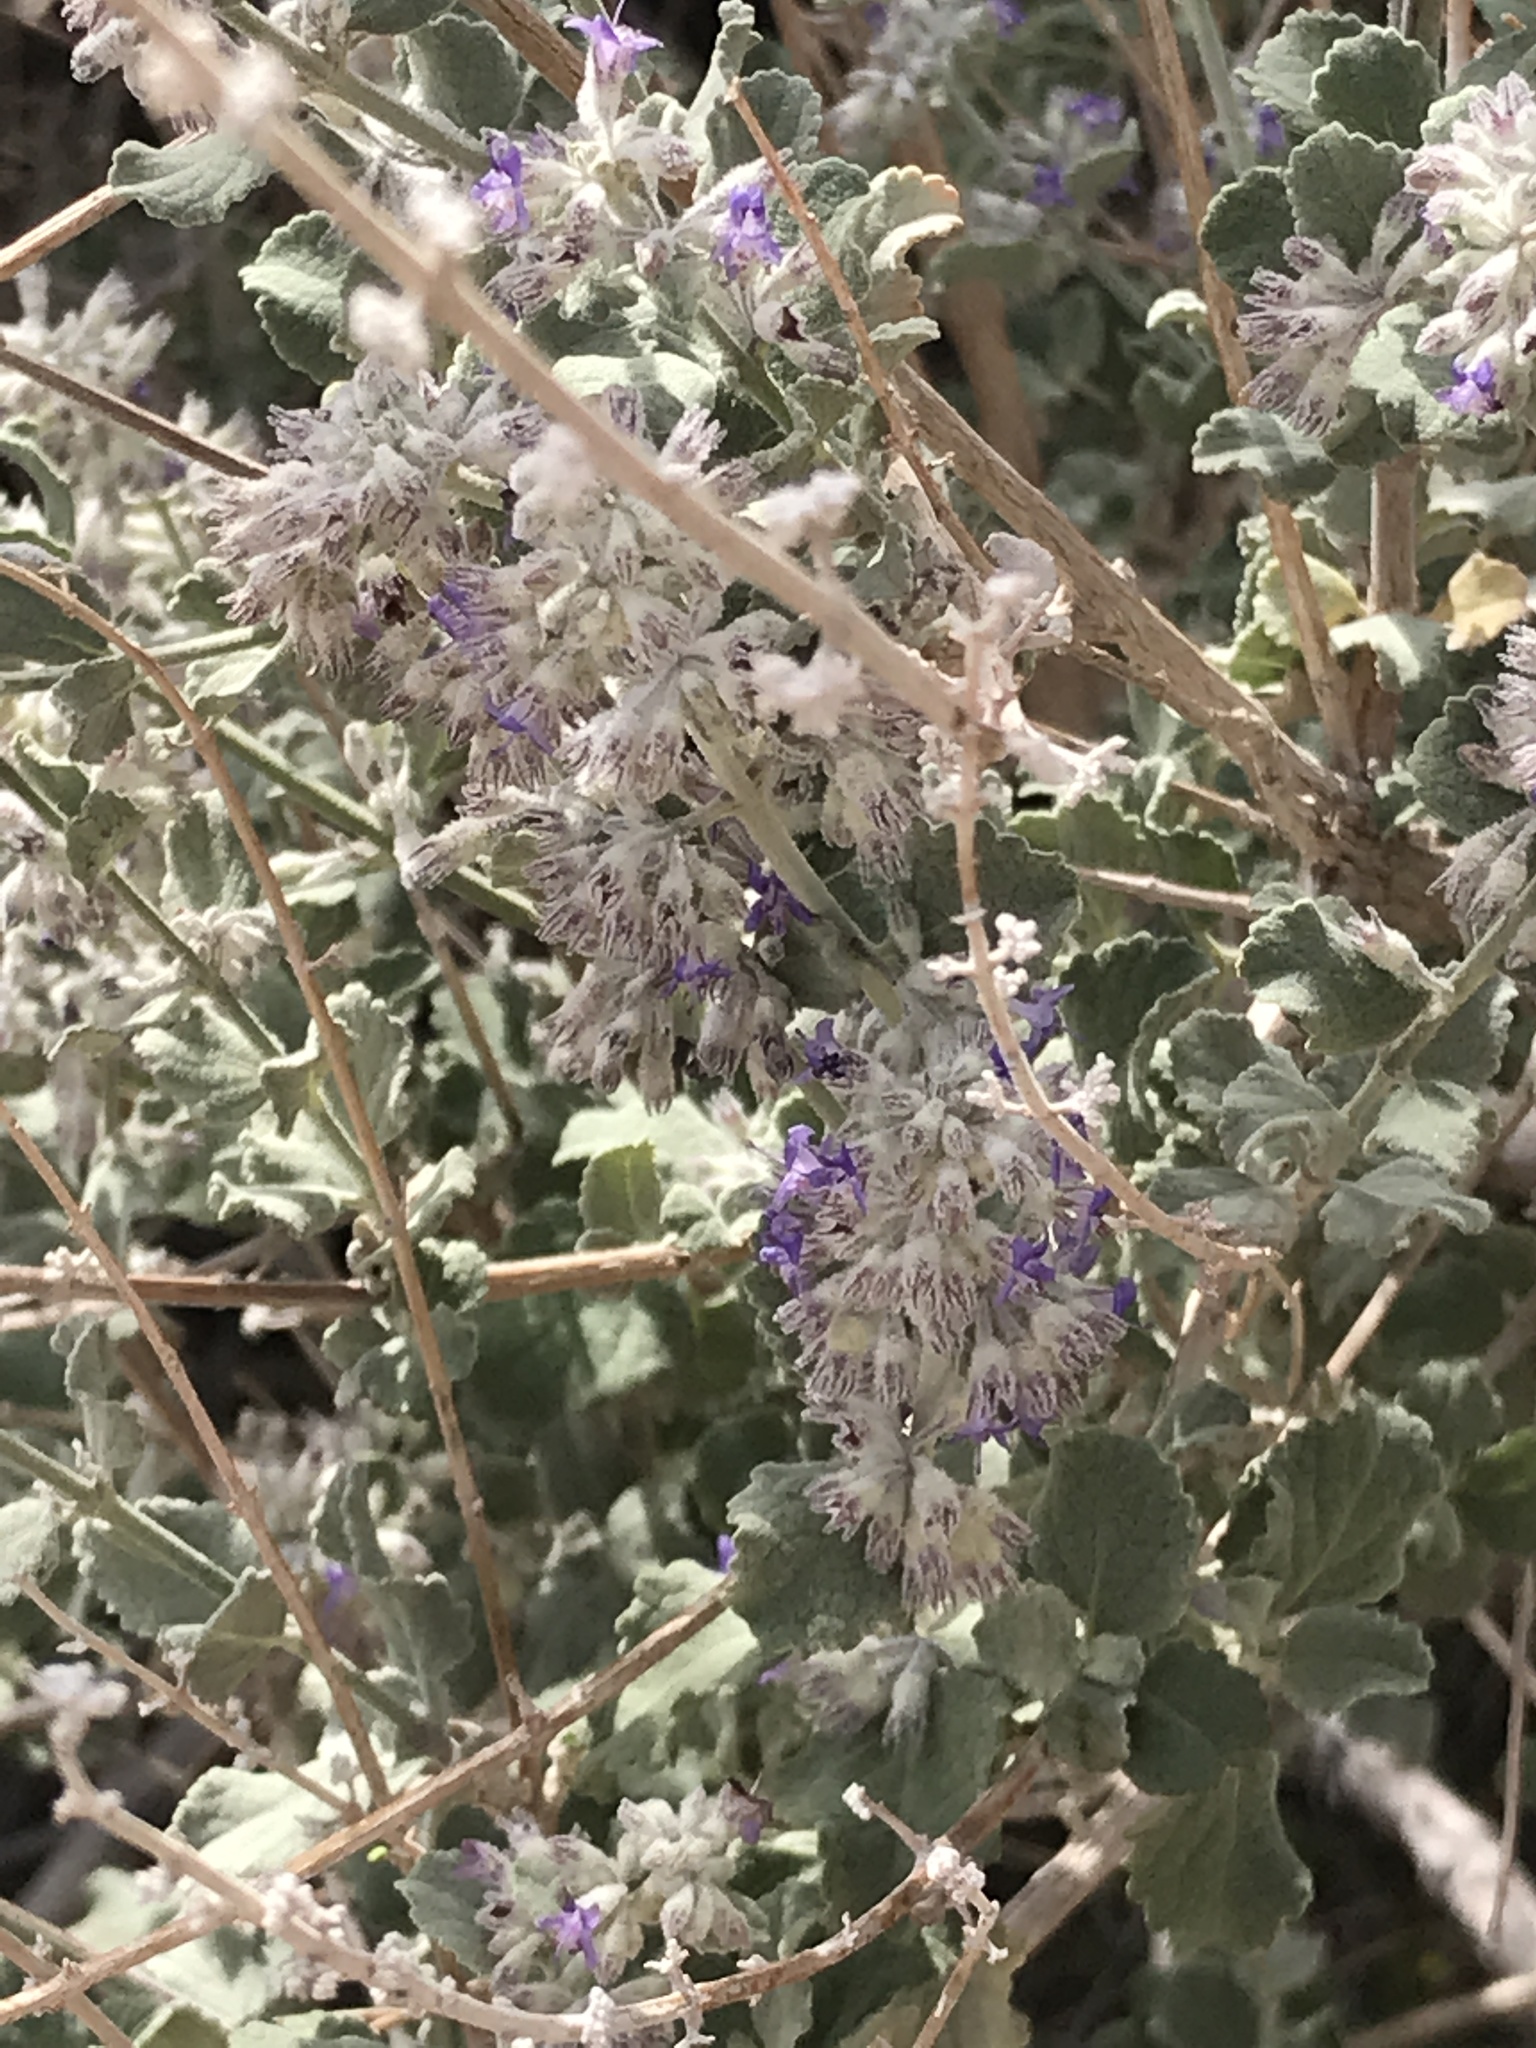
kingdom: Plantae
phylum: Tracheophyta
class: Magnoliopsida
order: Lamiales
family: Lamiaceae
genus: Condea
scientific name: Condea emoryi
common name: Chia
